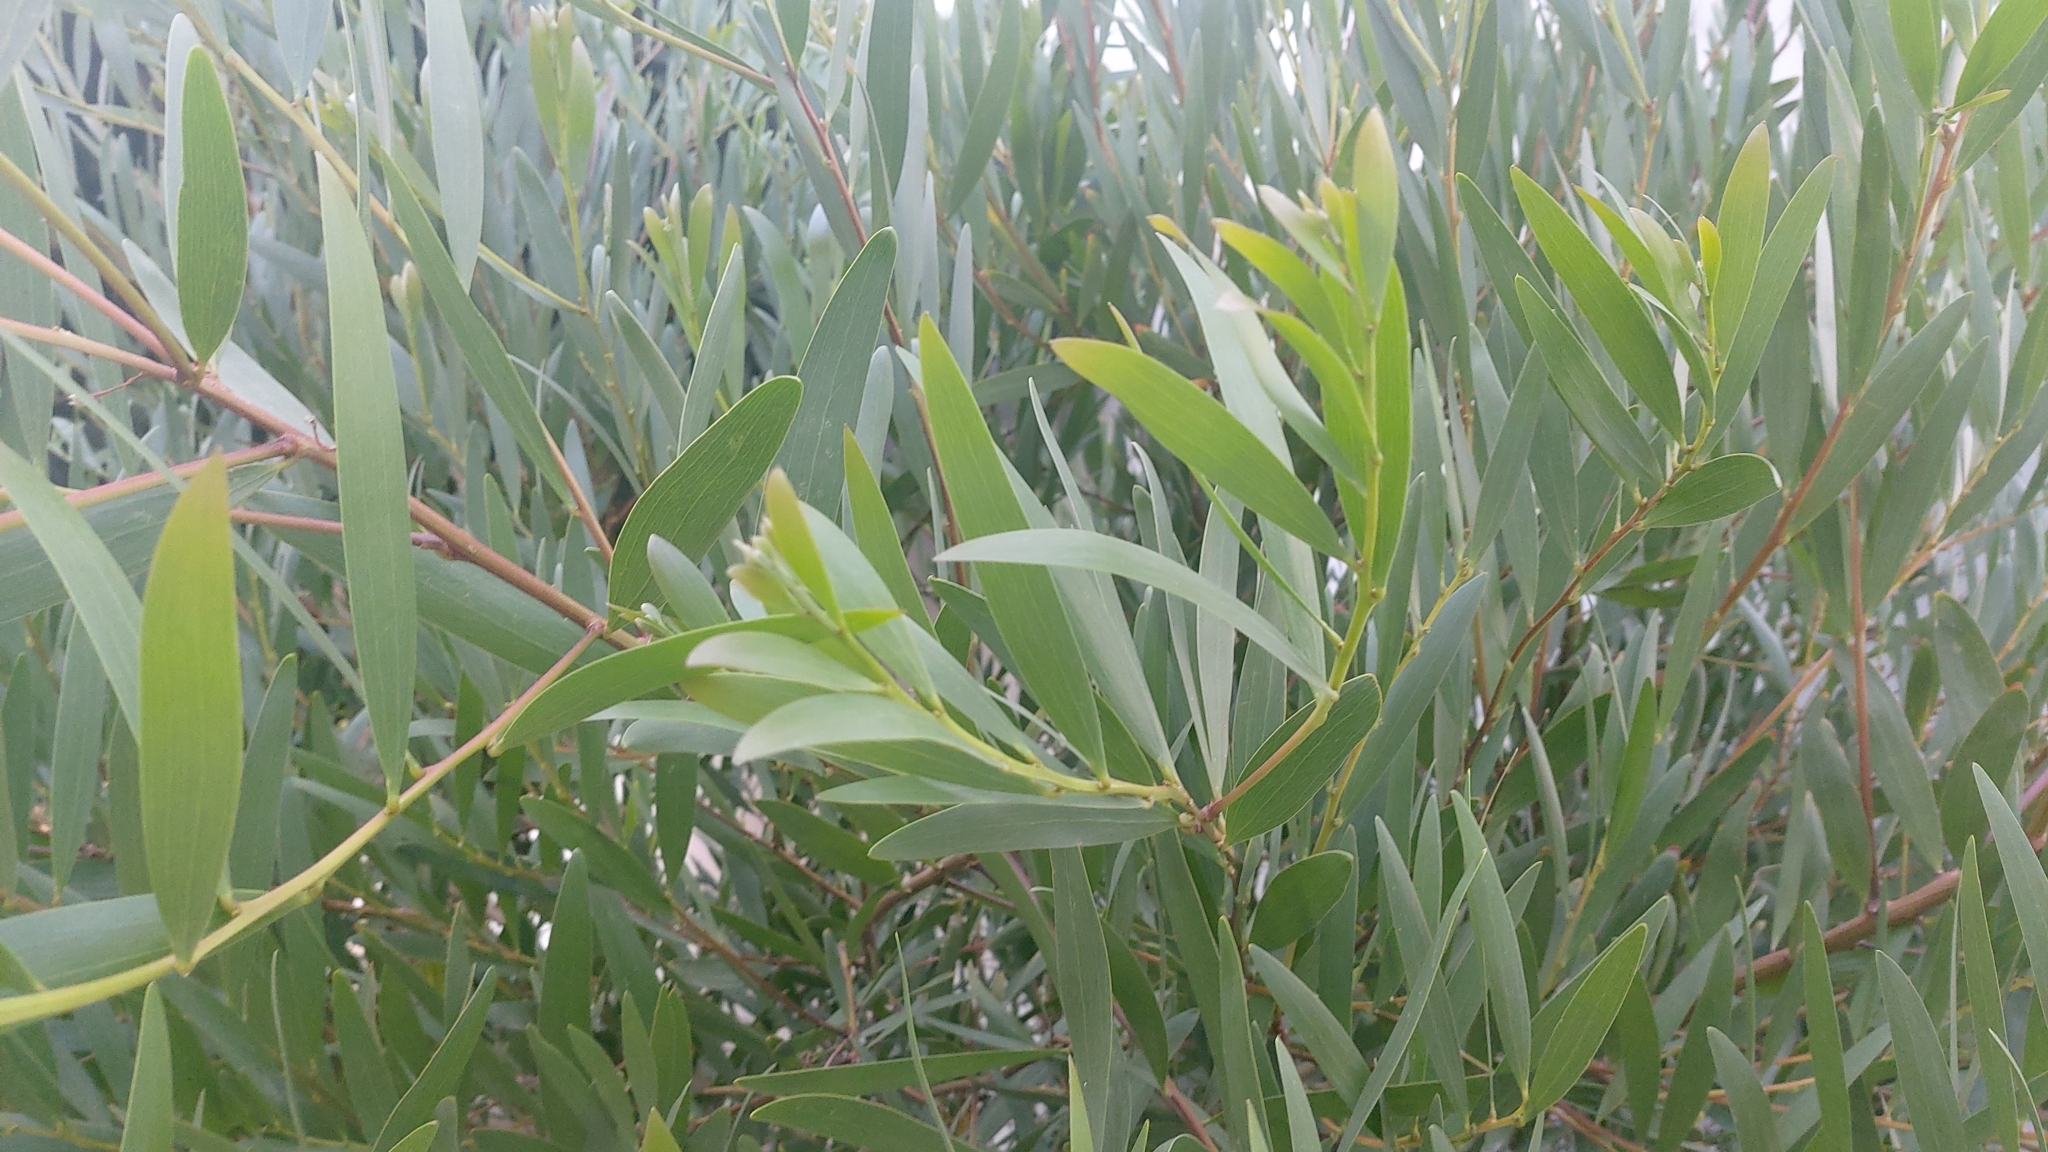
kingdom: Plantae
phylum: Tracheophyta
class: Magnoliopsida
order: Fabales
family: Fabaceae
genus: Acacia
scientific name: Acacia longifolia
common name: Sydney golden wattle
